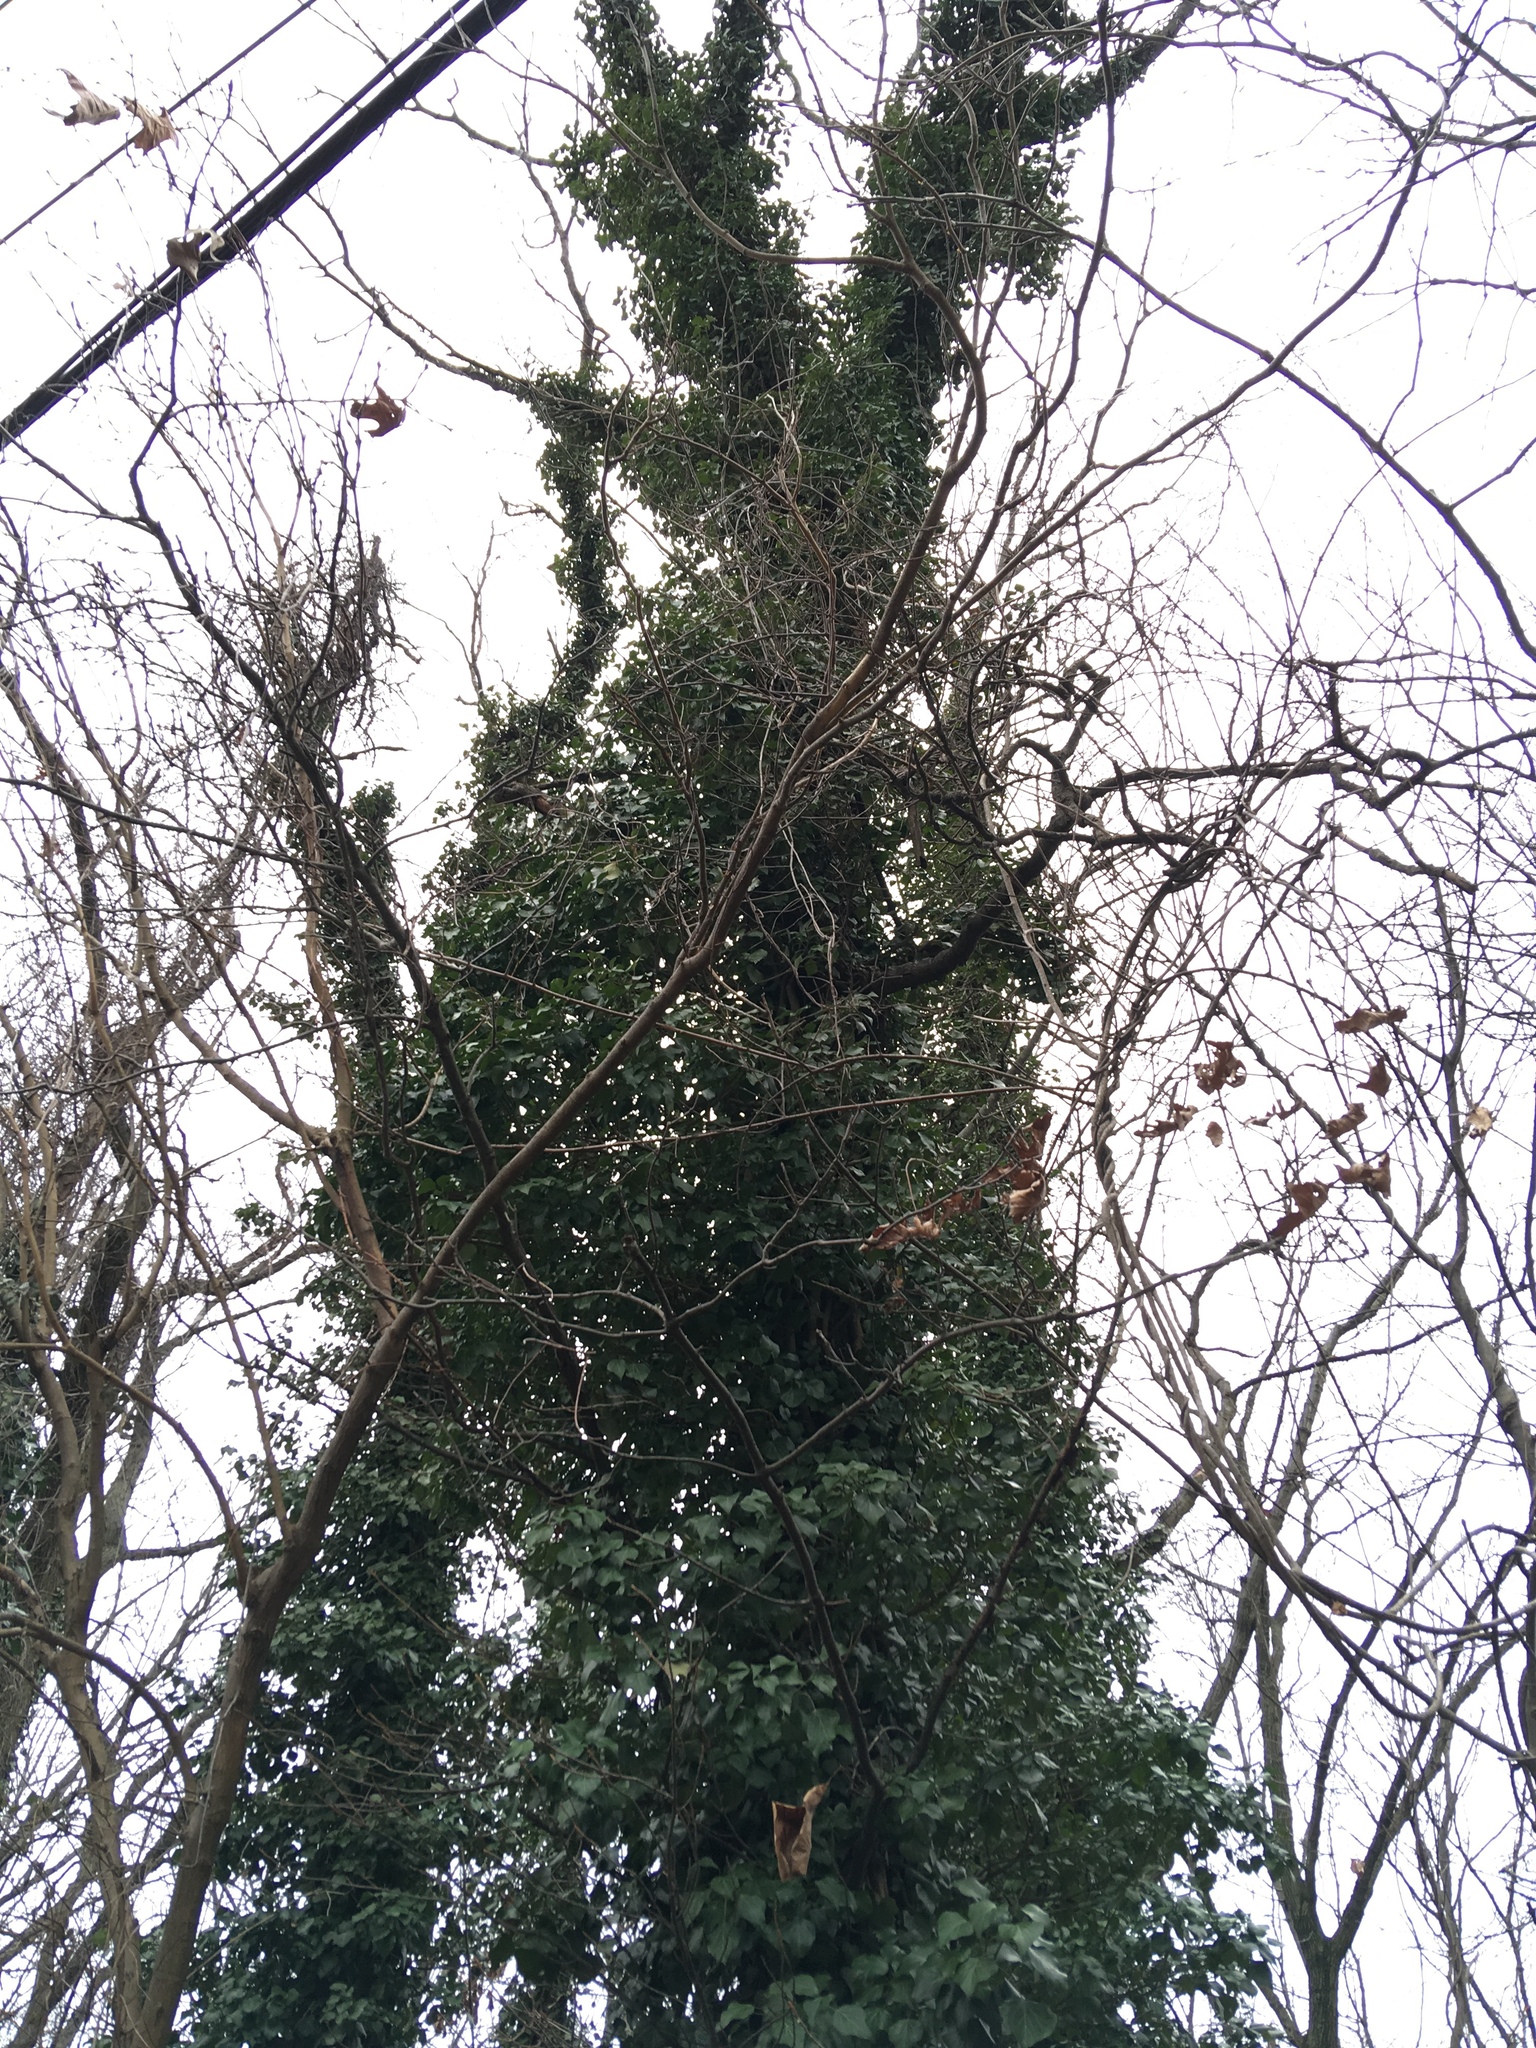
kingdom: Plantae
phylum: Tracheophyta
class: Magnoliopsida
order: Apiales
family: Araliaceae
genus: Hedera
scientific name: Hedera helix
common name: Ivy
